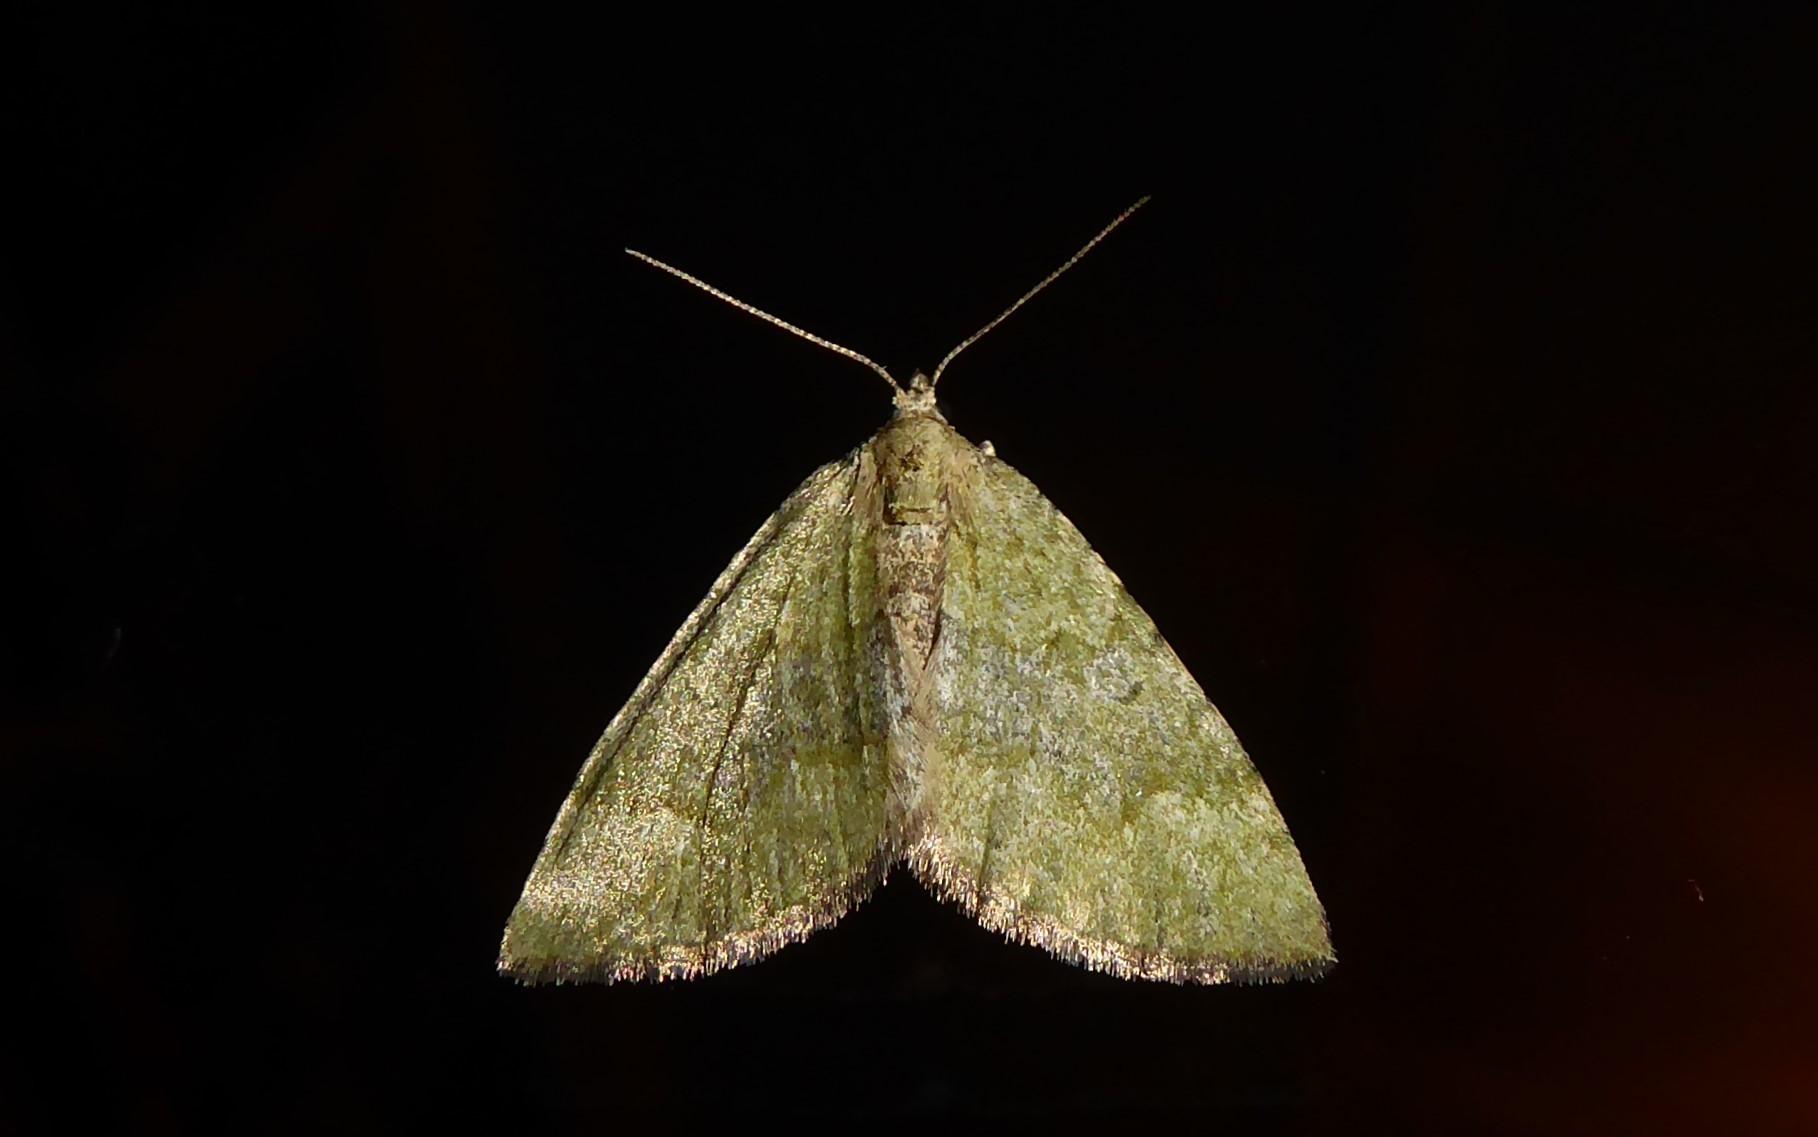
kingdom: Animalia
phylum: Arthropoda
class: Insecta
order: Lepidoptera
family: Geometridae
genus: Epyaxa
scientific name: Epyaxa rosearia
